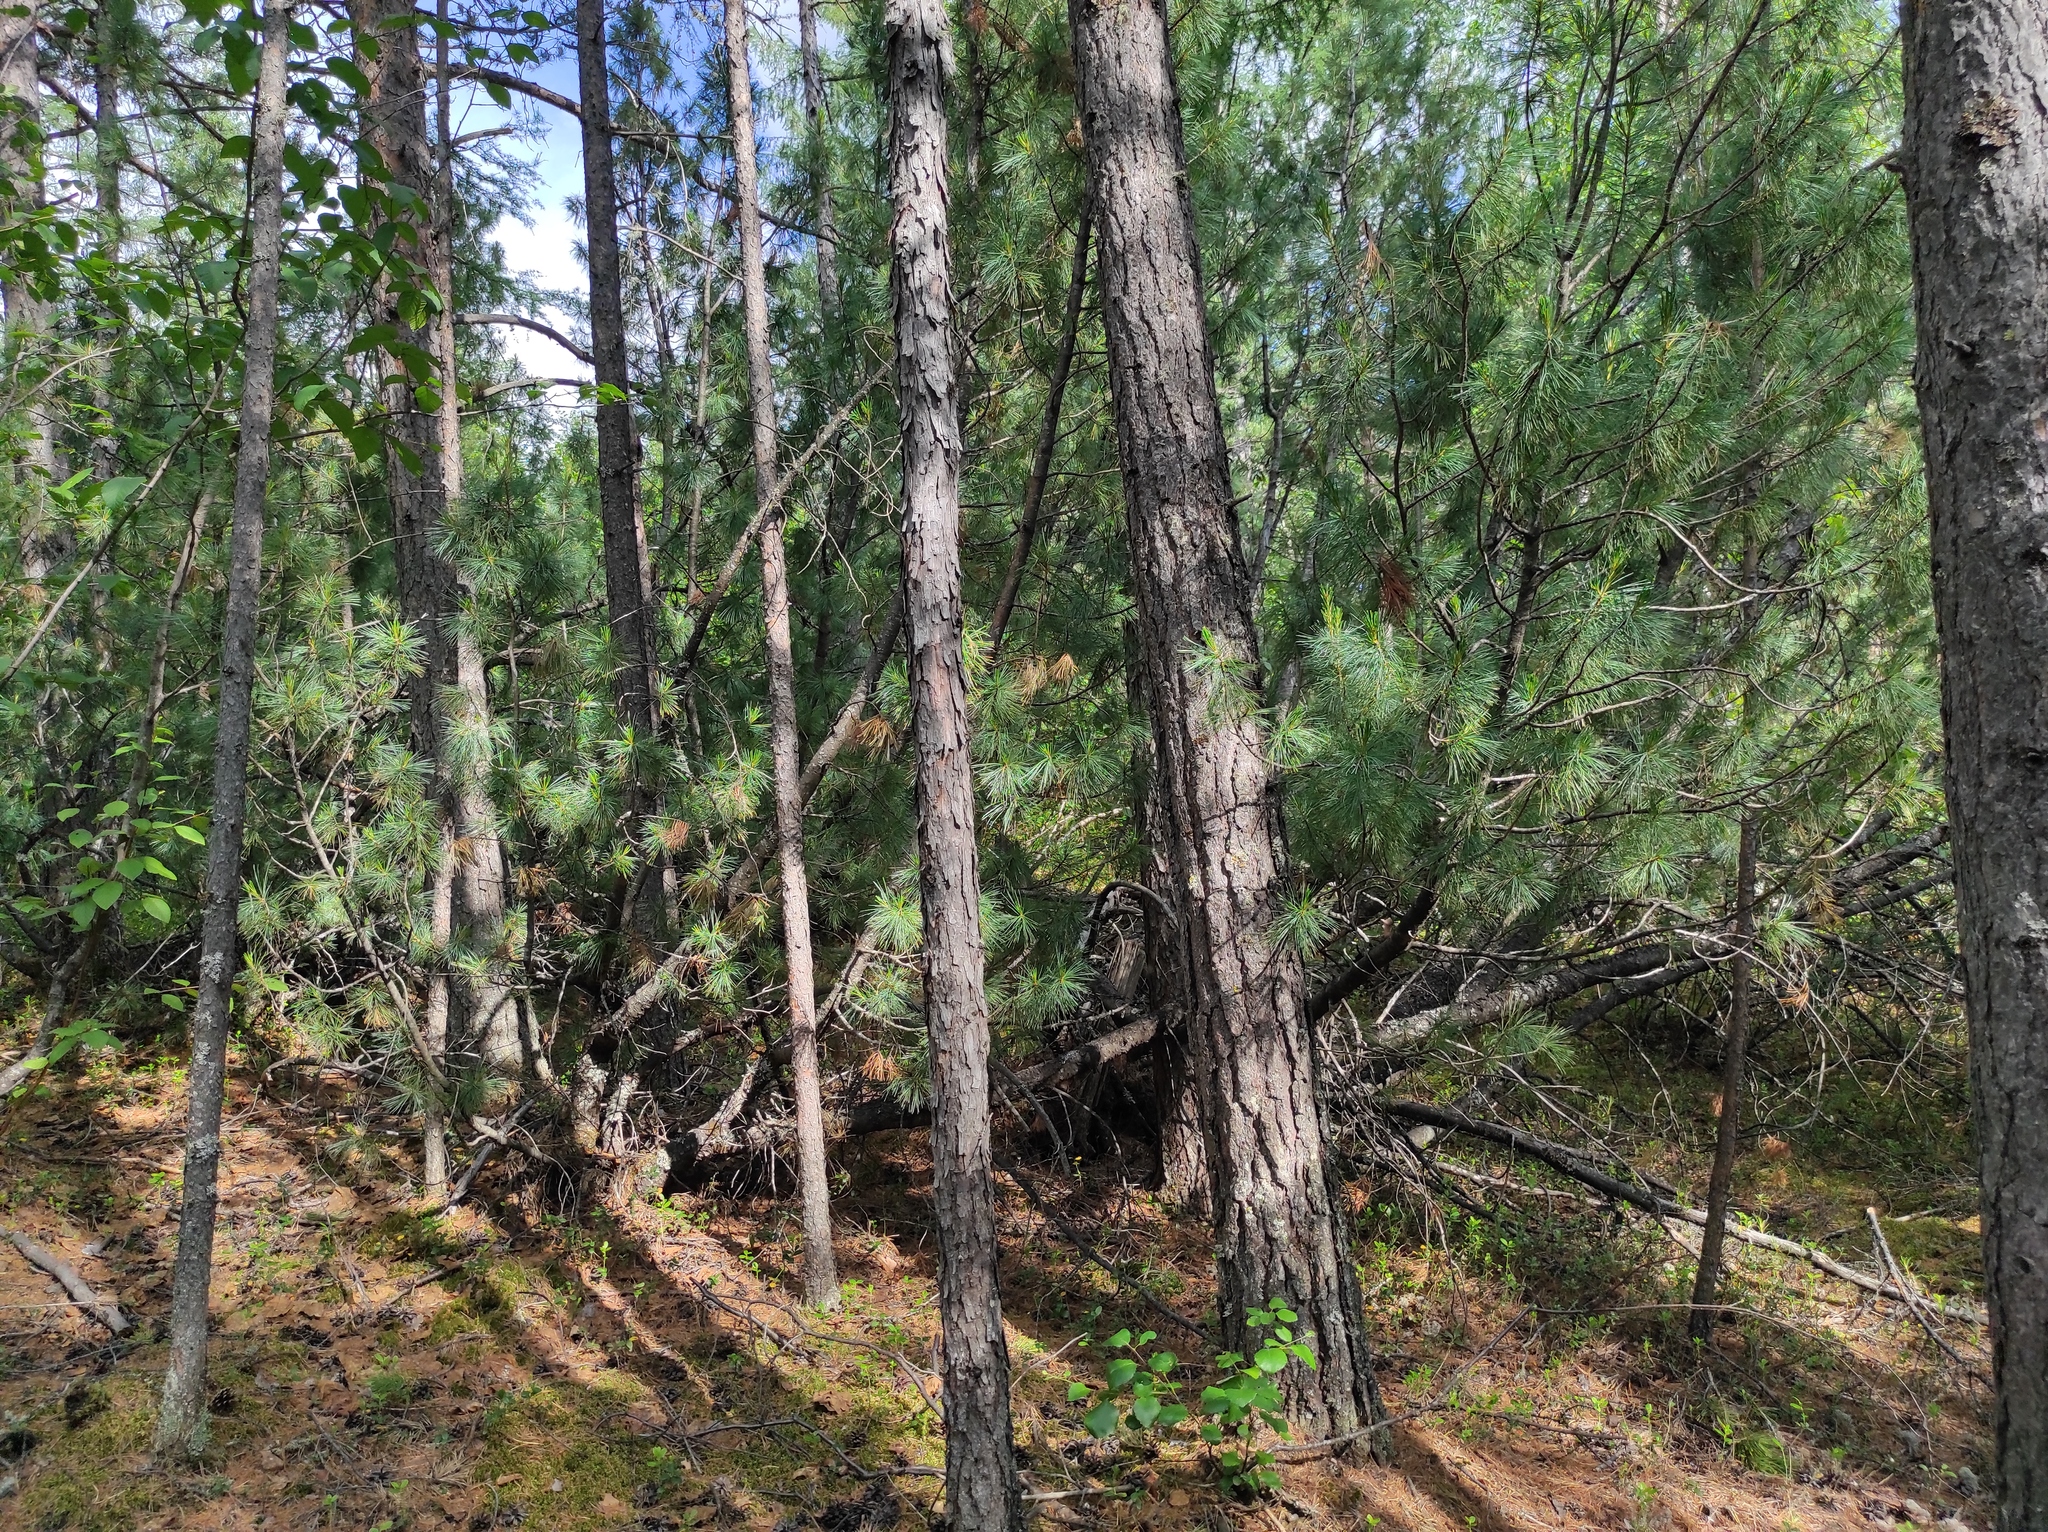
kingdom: Plantae
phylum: Tracheophyta
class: Pinopsida
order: Pinales
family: Pinaceae
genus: Pinus
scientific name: Pinus sylvestris
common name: Scots pine
